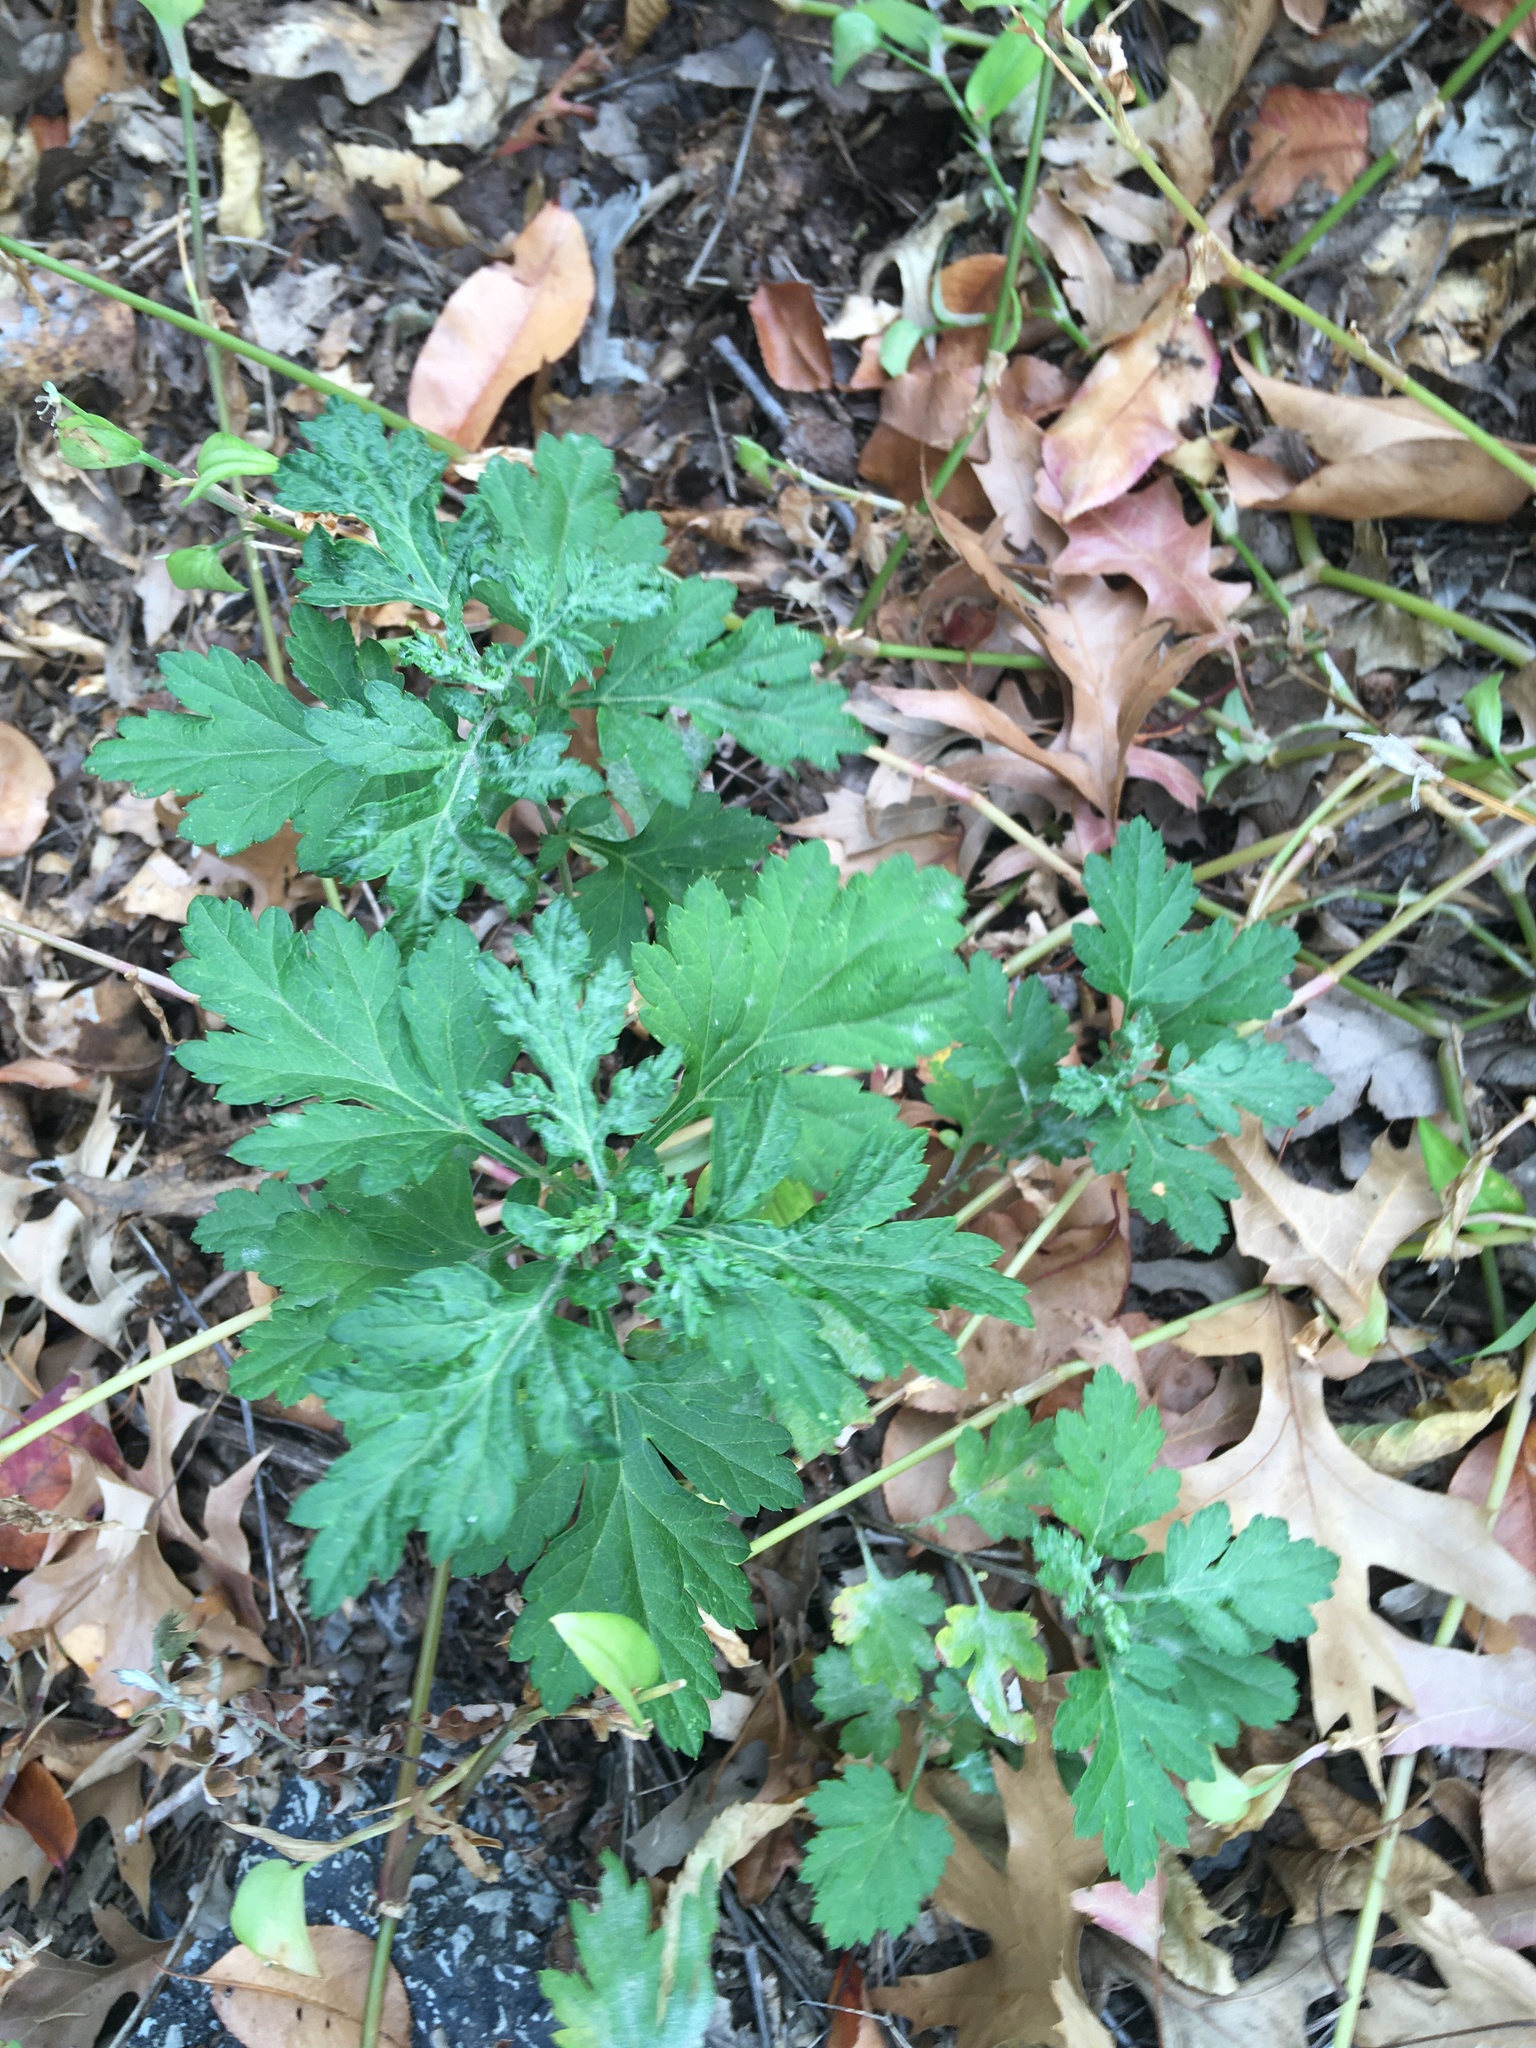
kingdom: Plantae
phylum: Tracheophyta
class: Magnoliopsida
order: Asterales
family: Asteraceae
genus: Artemisia
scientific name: Artemisia vulgaris
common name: Mugwort
